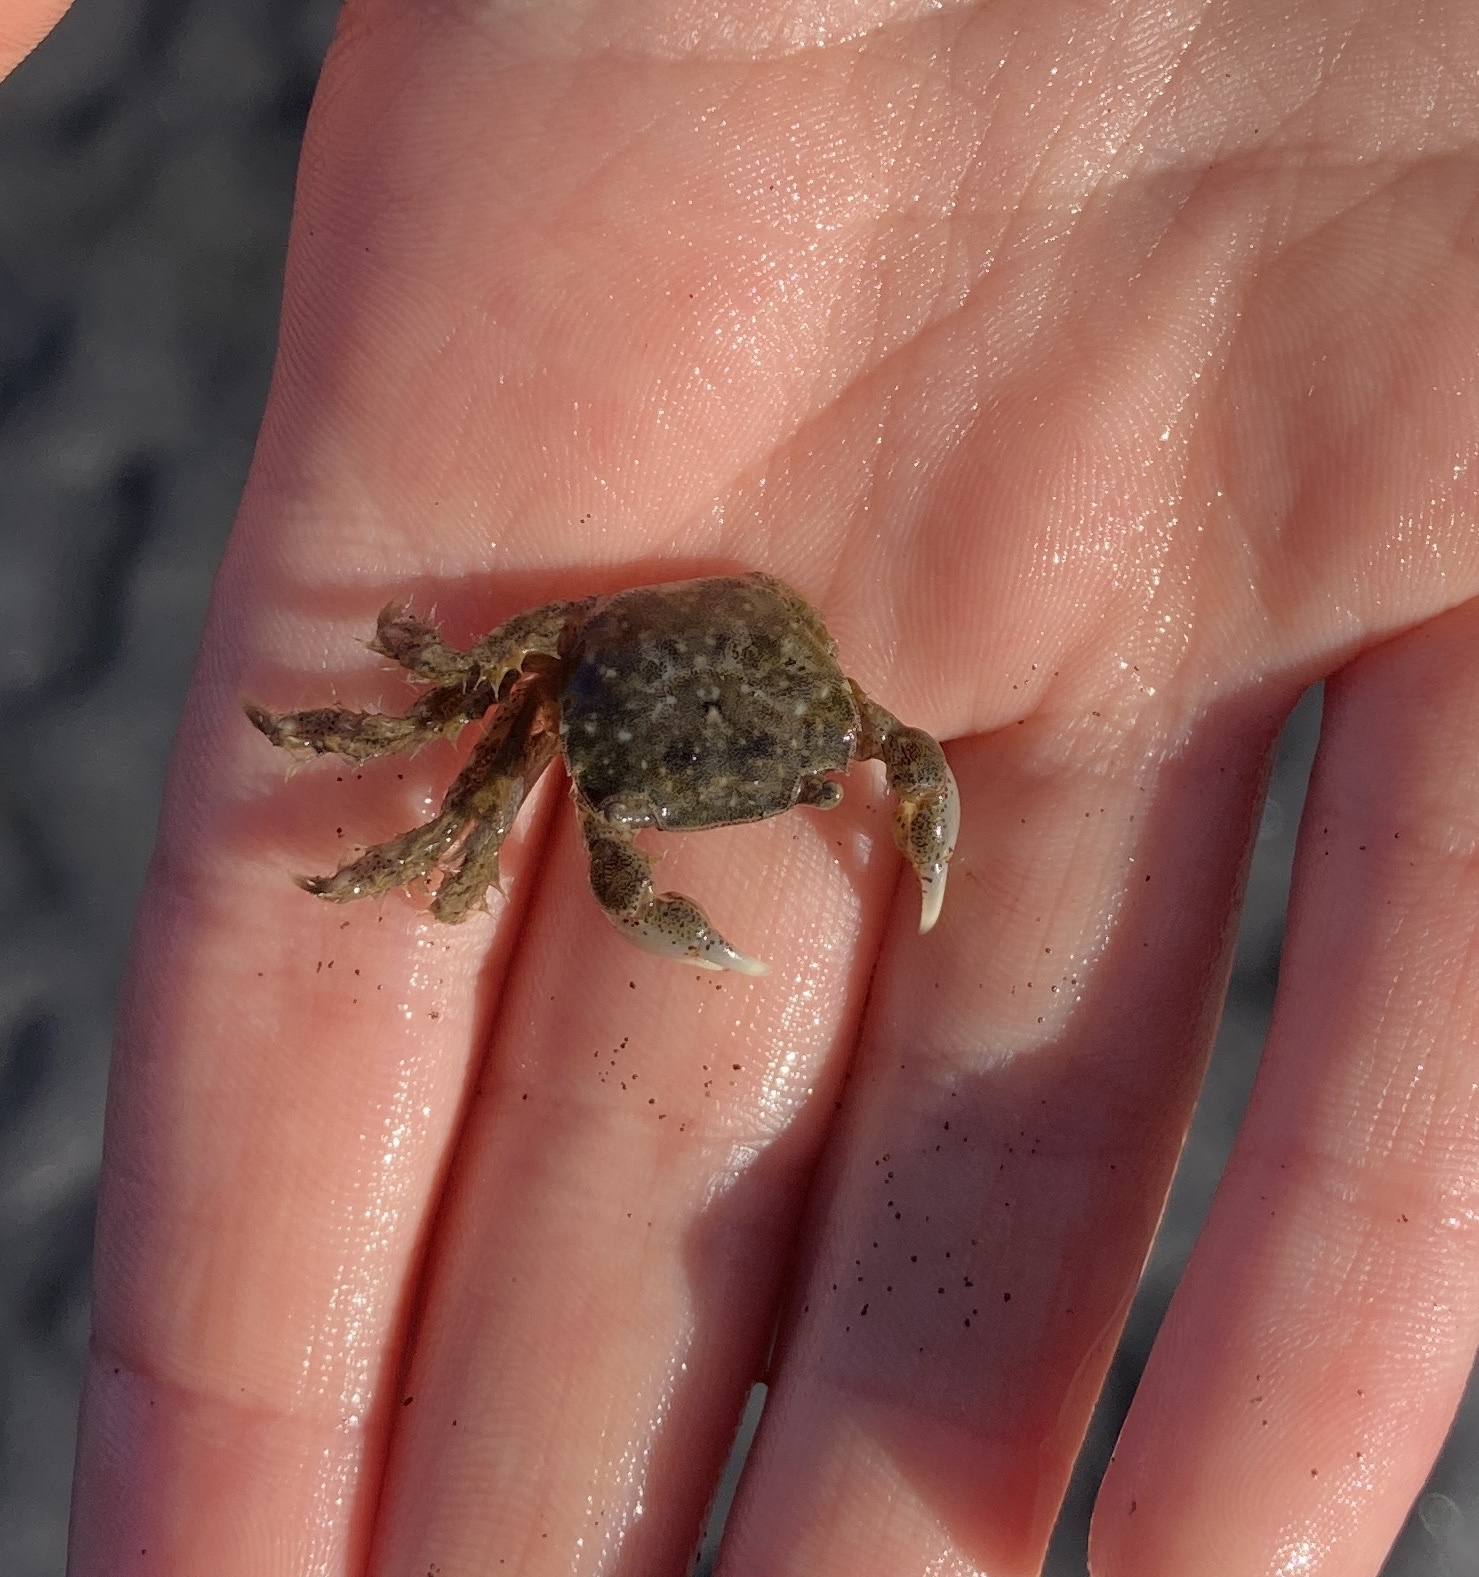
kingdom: Animalia
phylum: Arthropoda
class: Malacostraca
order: Decapoda
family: Varunidae
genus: Hemigrapsus
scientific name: Hemigrapsus crenulatus
